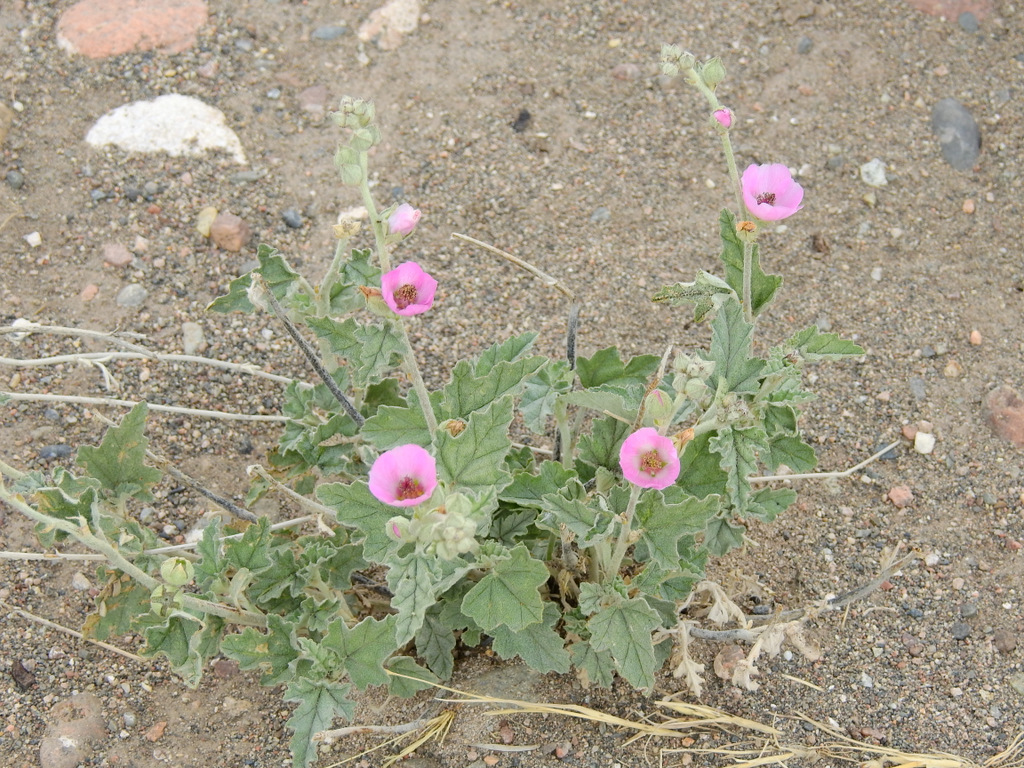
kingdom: Plantae
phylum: Tracheophyta
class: Magnoliopsida
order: Malvales
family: Malvaceae
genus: Sphaeralcea
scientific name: Sphaeralcea mendocina
